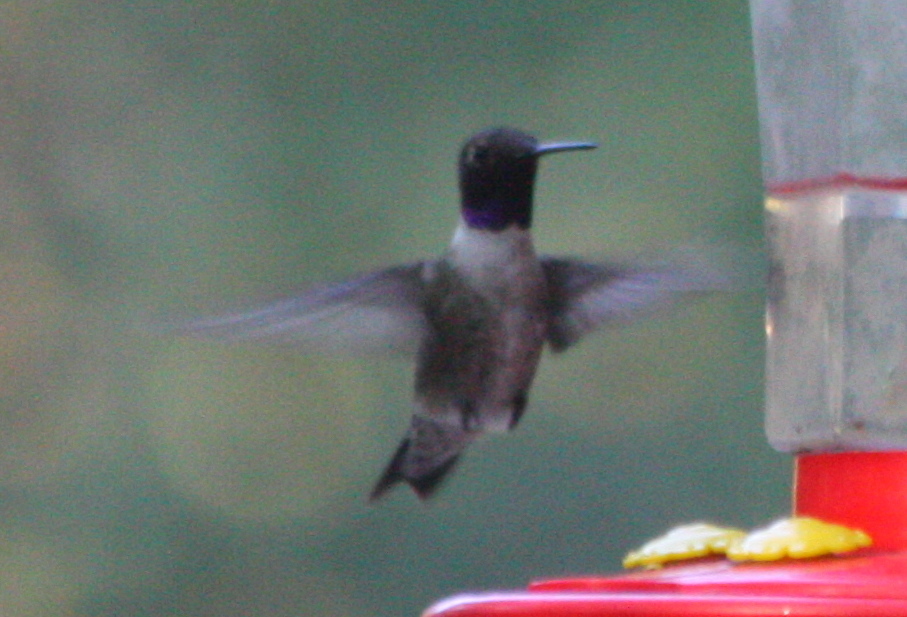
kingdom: Animalia
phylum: Chordata
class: Aves
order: Apodiformes
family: Trochilidae
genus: Archilochus
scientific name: Archilochus alexandri
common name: Black-chinned hummingbird
